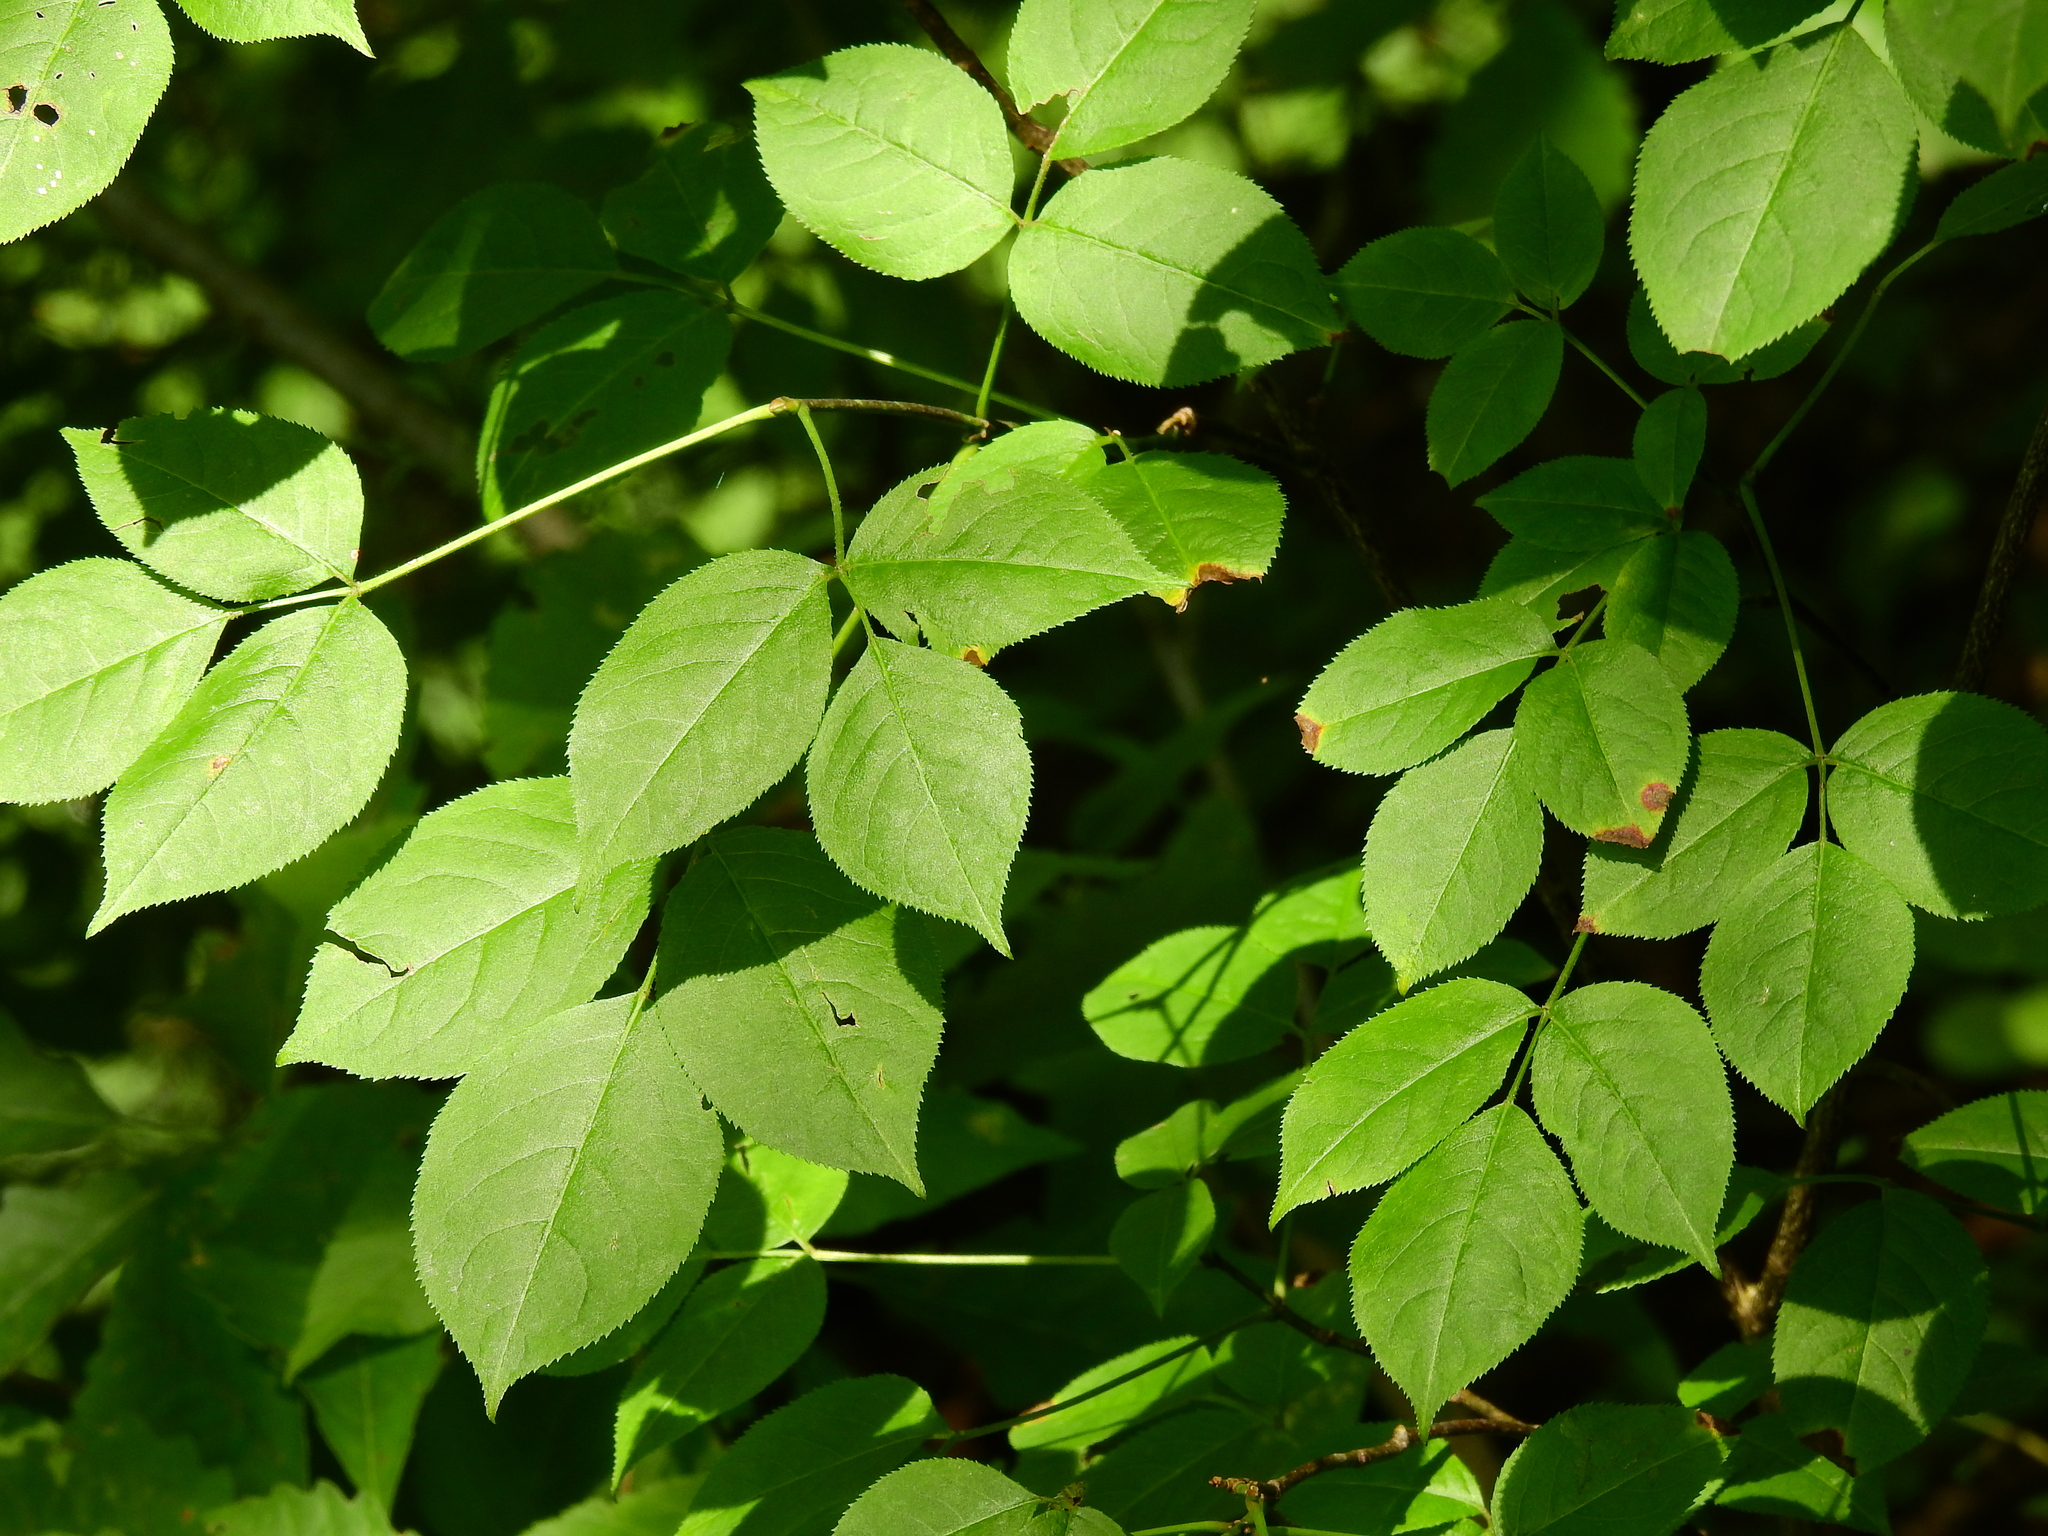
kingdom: Plantae
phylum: Tracheophyta
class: Magnoliopsida
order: Crossosomatales
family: Staphyleaceae
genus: Staphylea
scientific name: Staphylea trifolia
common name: American bladdernut
